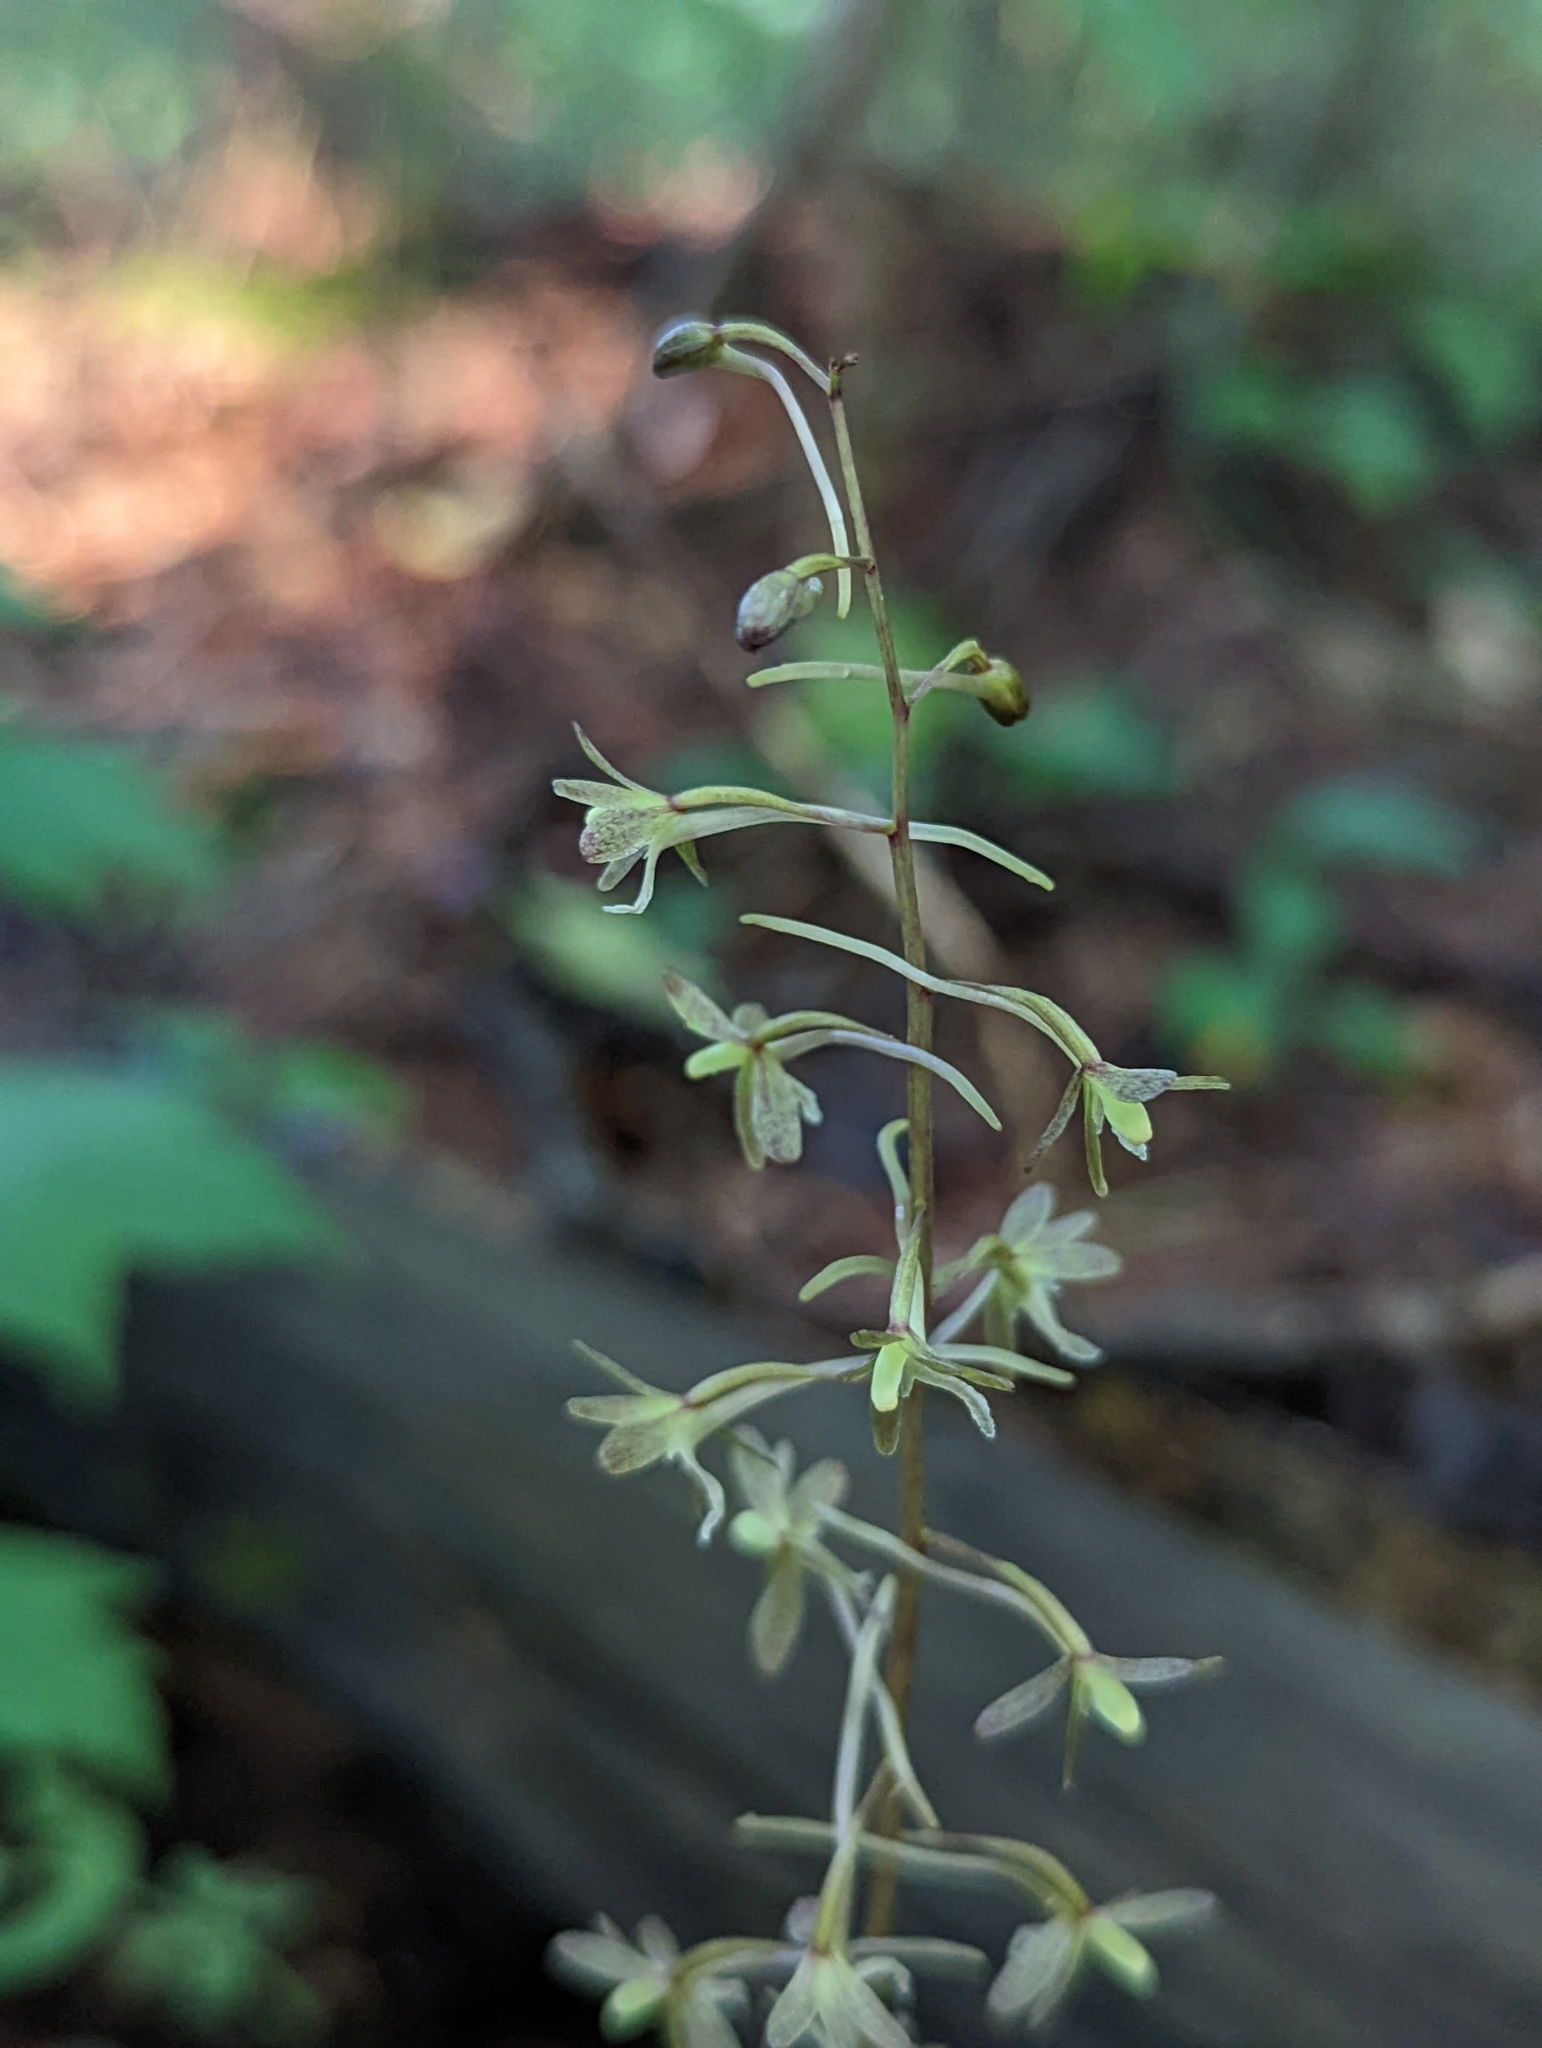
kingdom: Plantae
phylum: Tracheophyta
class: Liliopsida
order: Asparagales
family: Orchidaceae
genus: Tipularia
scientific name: Tipularia discolor
